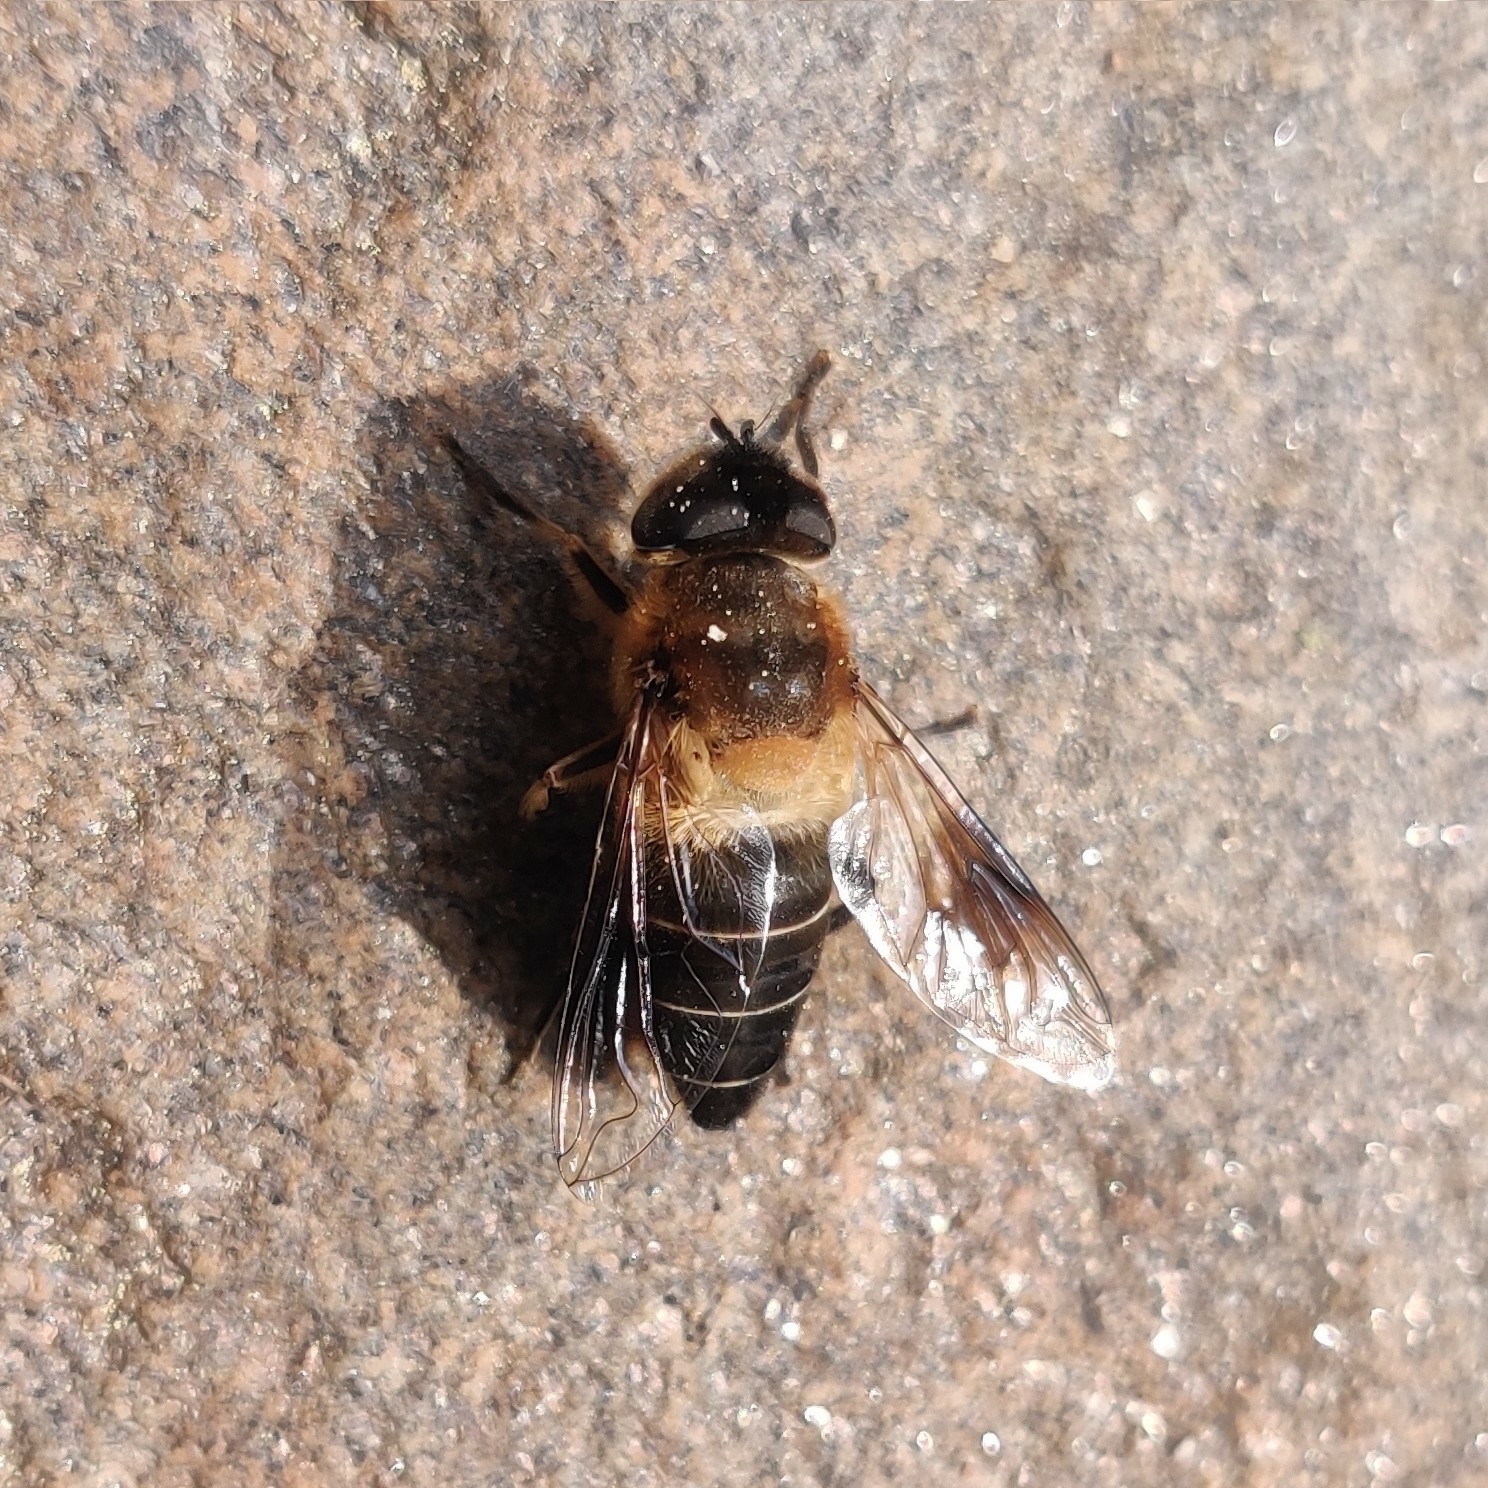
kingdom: Animalia
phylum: Arthropoda
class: Insecta
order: Diptera
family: Syrphidae
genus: Eristalis
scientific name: Eristalis himalayensis
